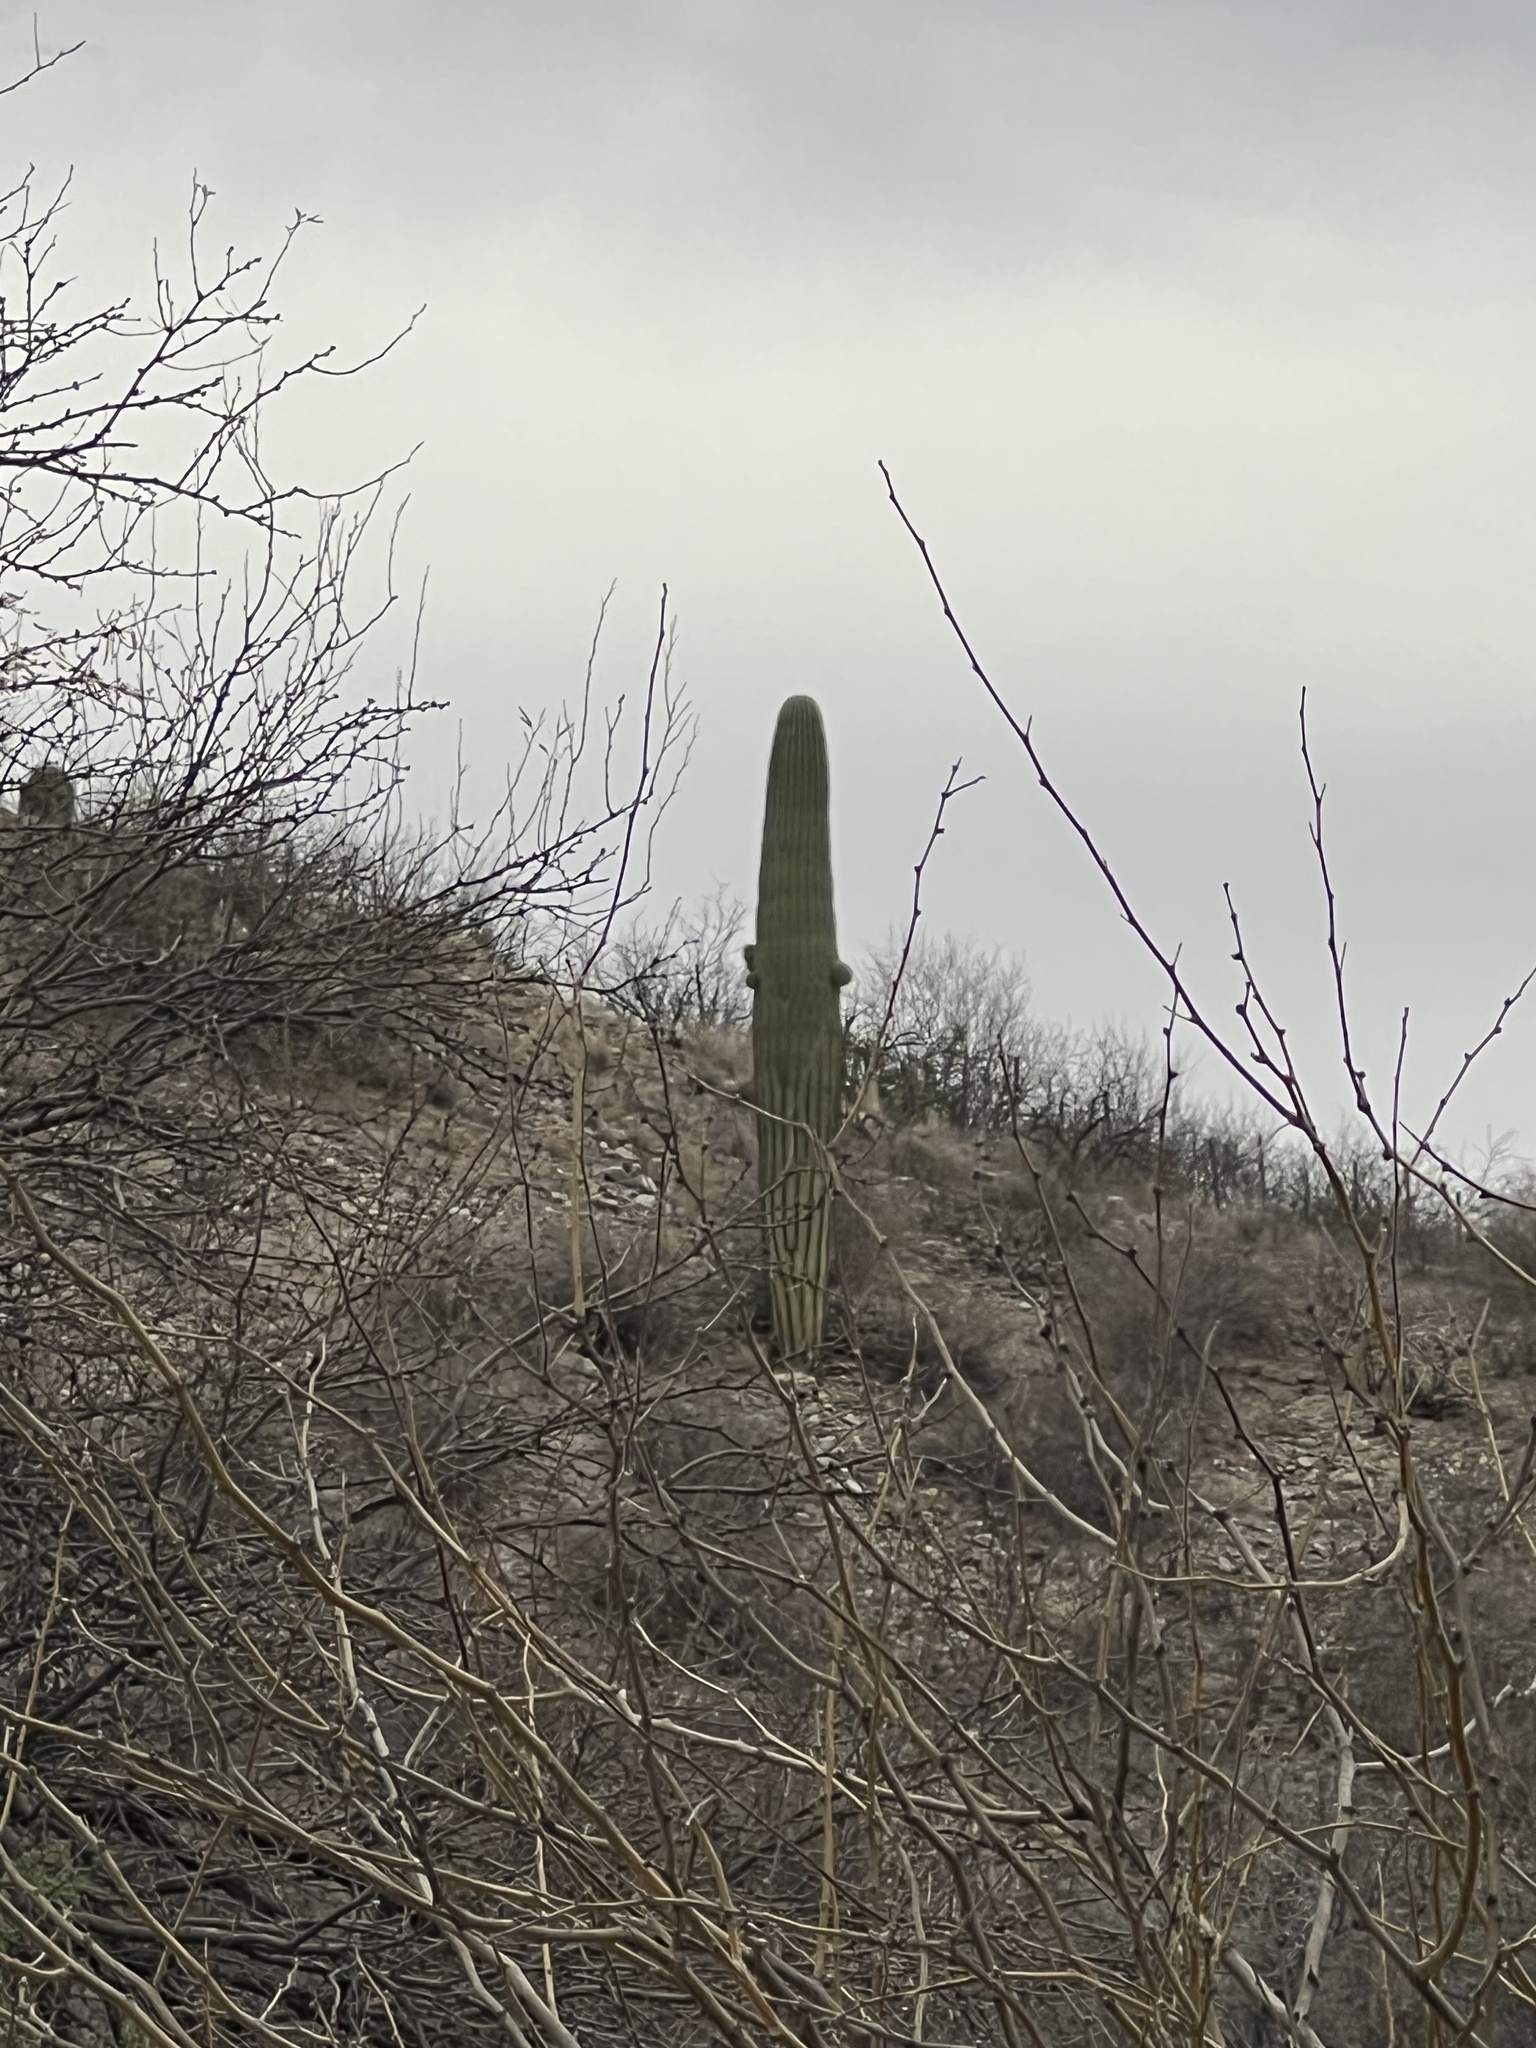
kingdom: Plantae
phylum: Tracheophyta
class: Magnoliopsida
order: Caryophyllales
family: Cactaceae
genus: Carnegiea
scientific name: Carnegiea gigantea
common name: Saguaro
